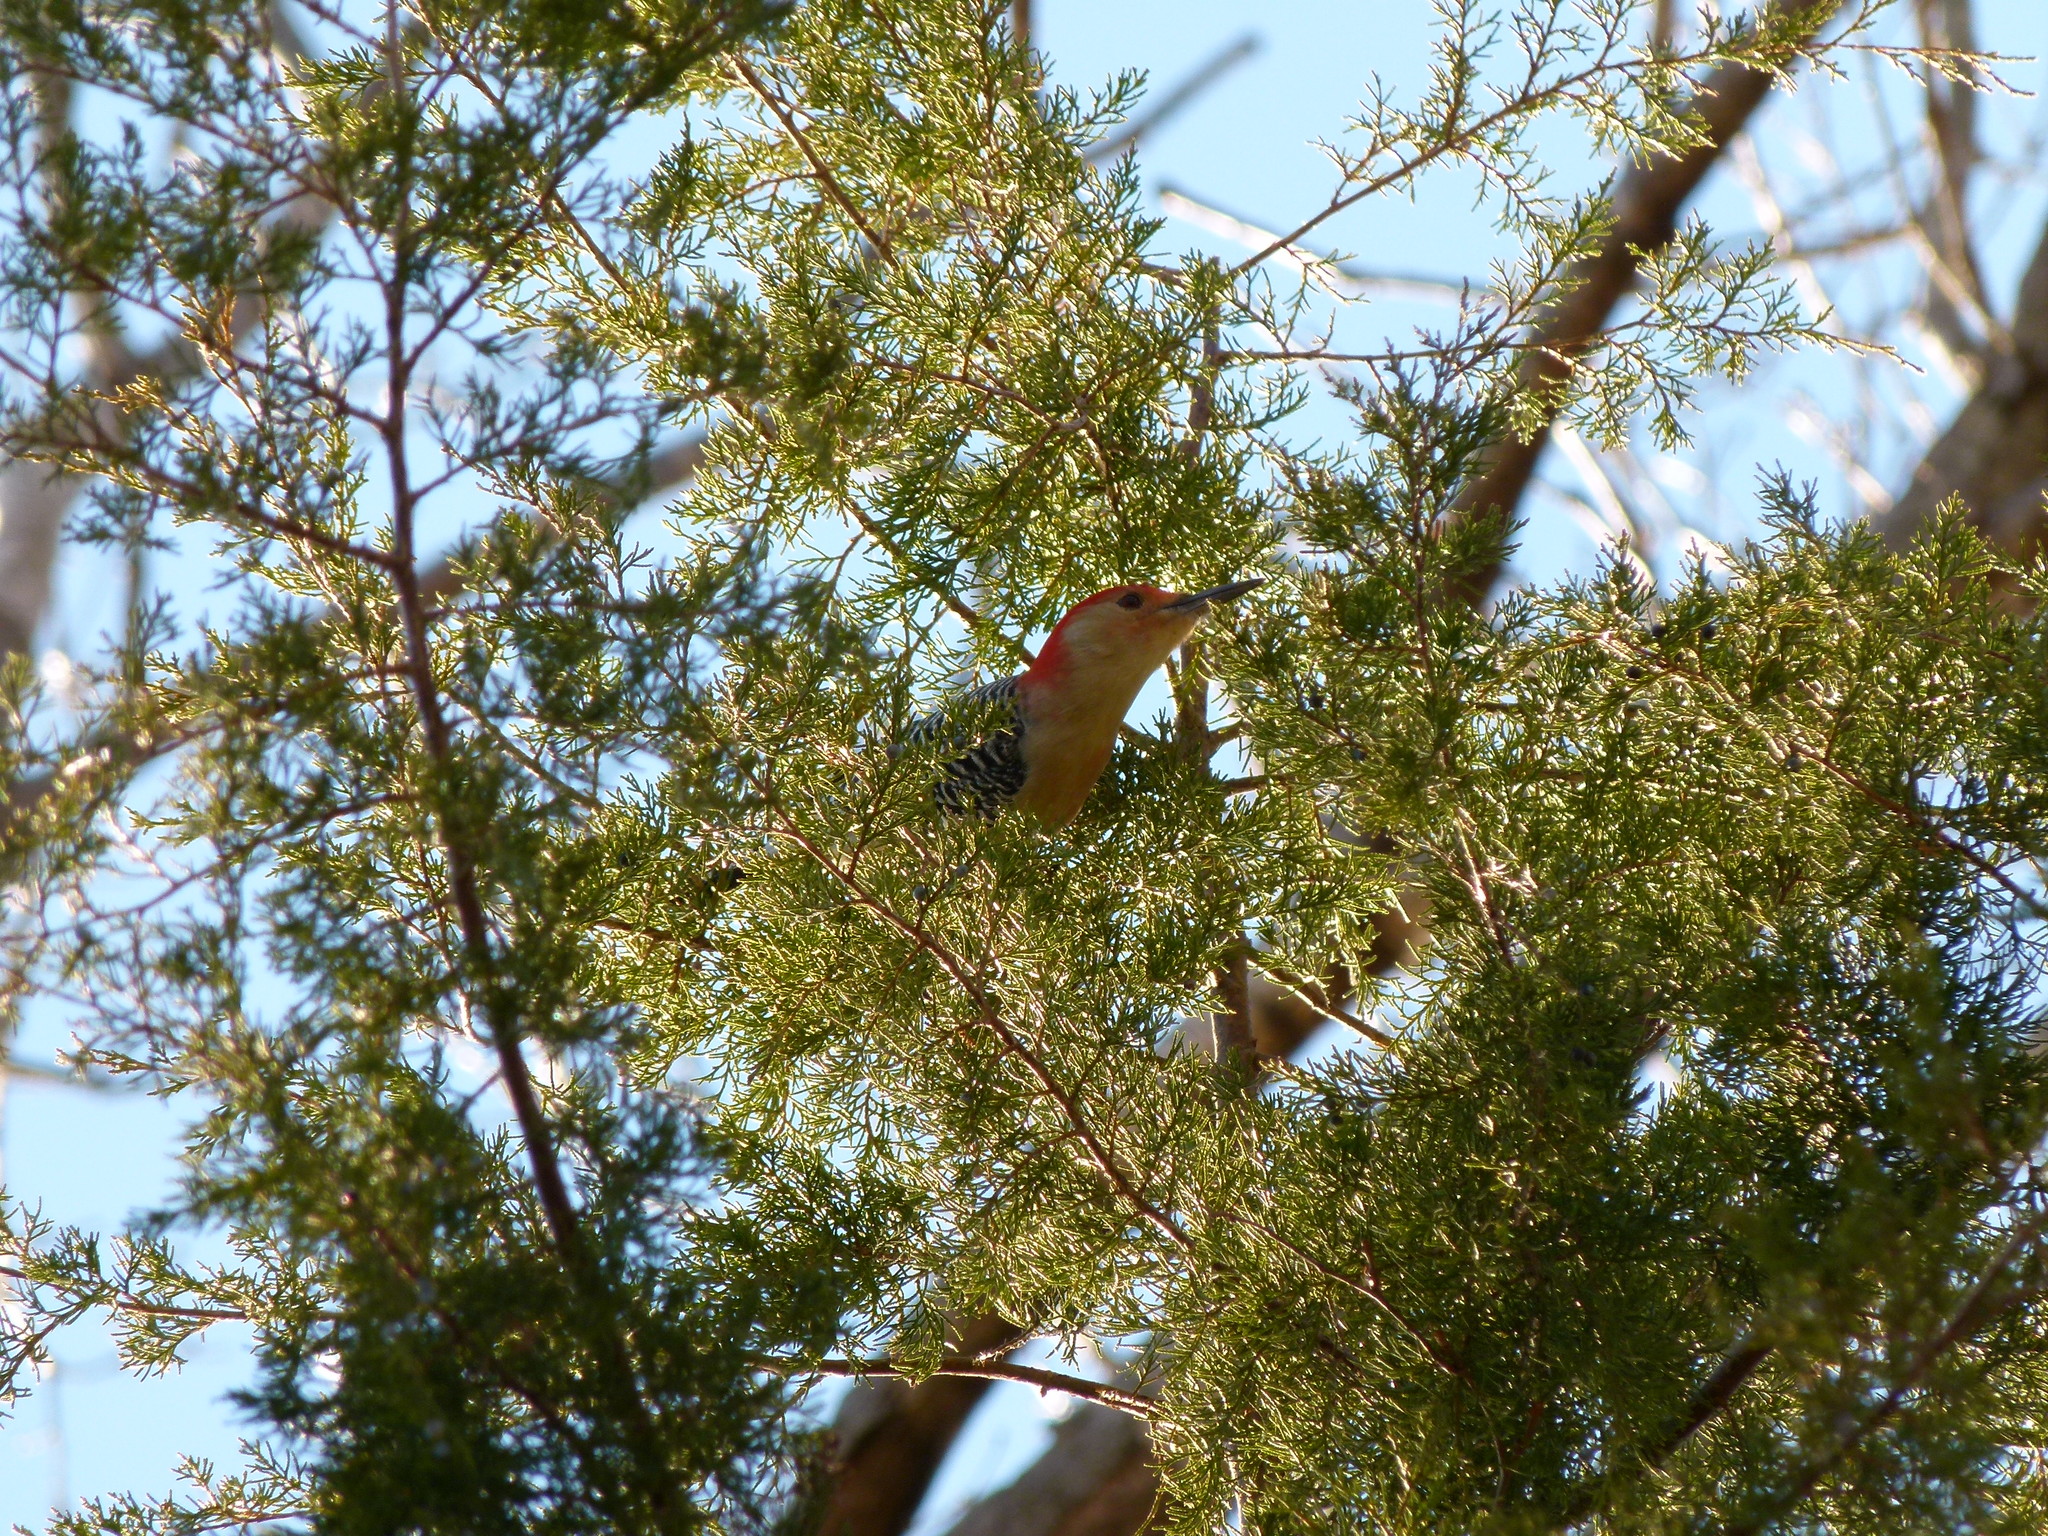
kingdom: Animalia
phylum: Chordata
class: Aves
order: Piciformes
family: Picidae
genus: Melanerpes
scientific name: Melanerpes carolinus
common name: Red-bellied woodpecker
